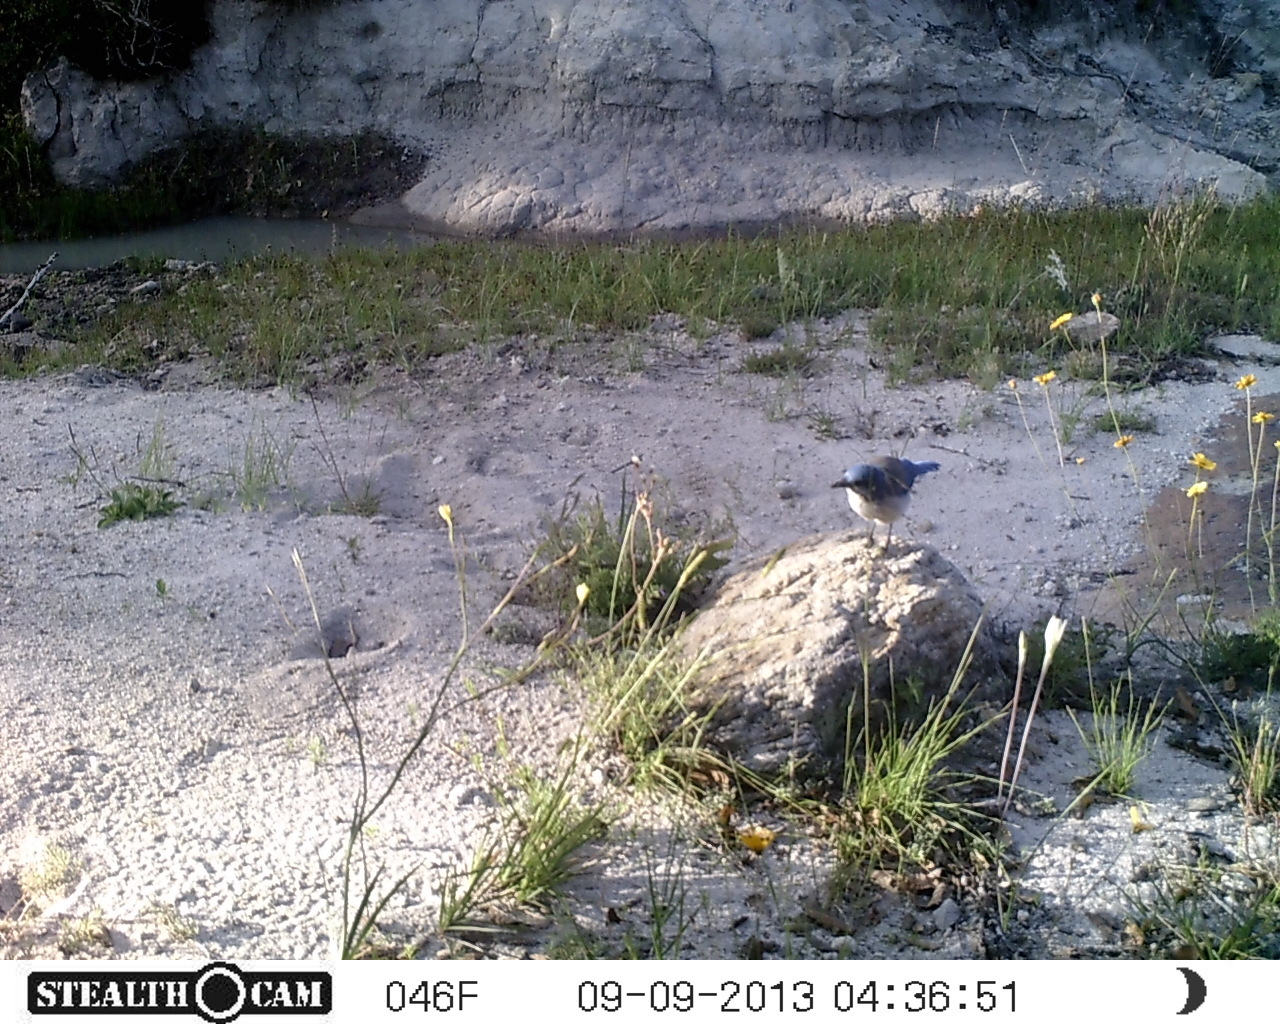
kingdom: Animalia
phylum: Chordata
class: Aves
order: Passeriformes
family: Corvidae
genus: Aphelocoma
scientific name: Aphelocoma woodhouseii
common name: Woodhouse's scrub-jay
